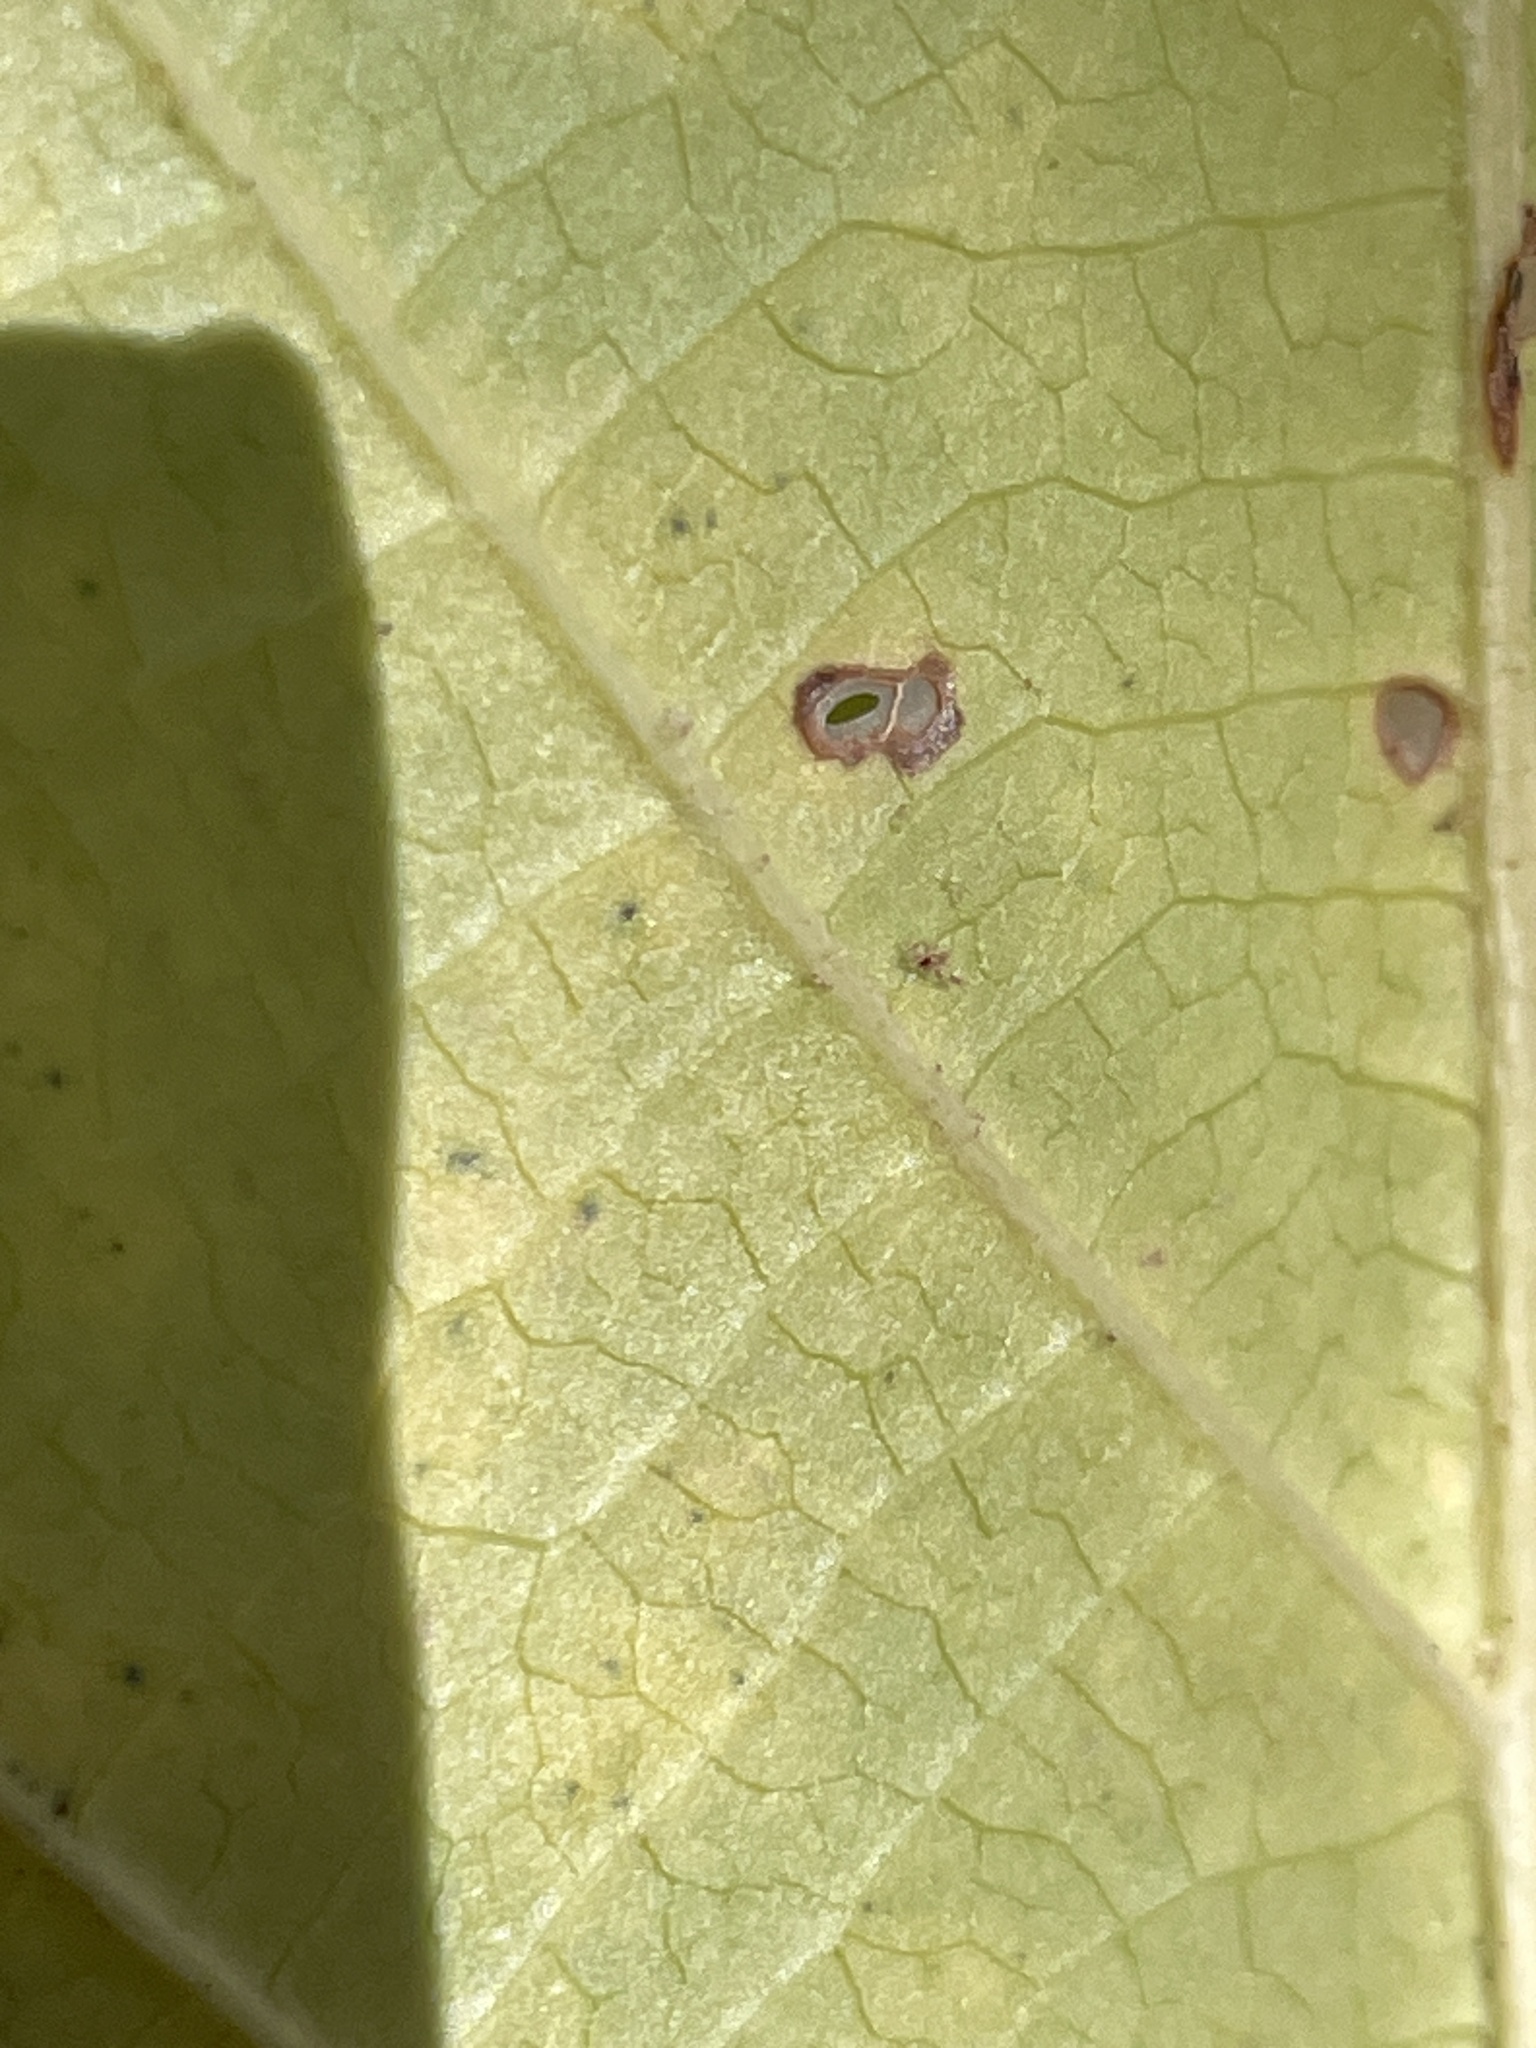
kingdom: Plantae
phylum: Tracheophyta
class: Magnoliopsida
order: Saxifragales
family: Hamamelidaceae
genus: Fothergilla
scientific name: Fothergilla latifolia
